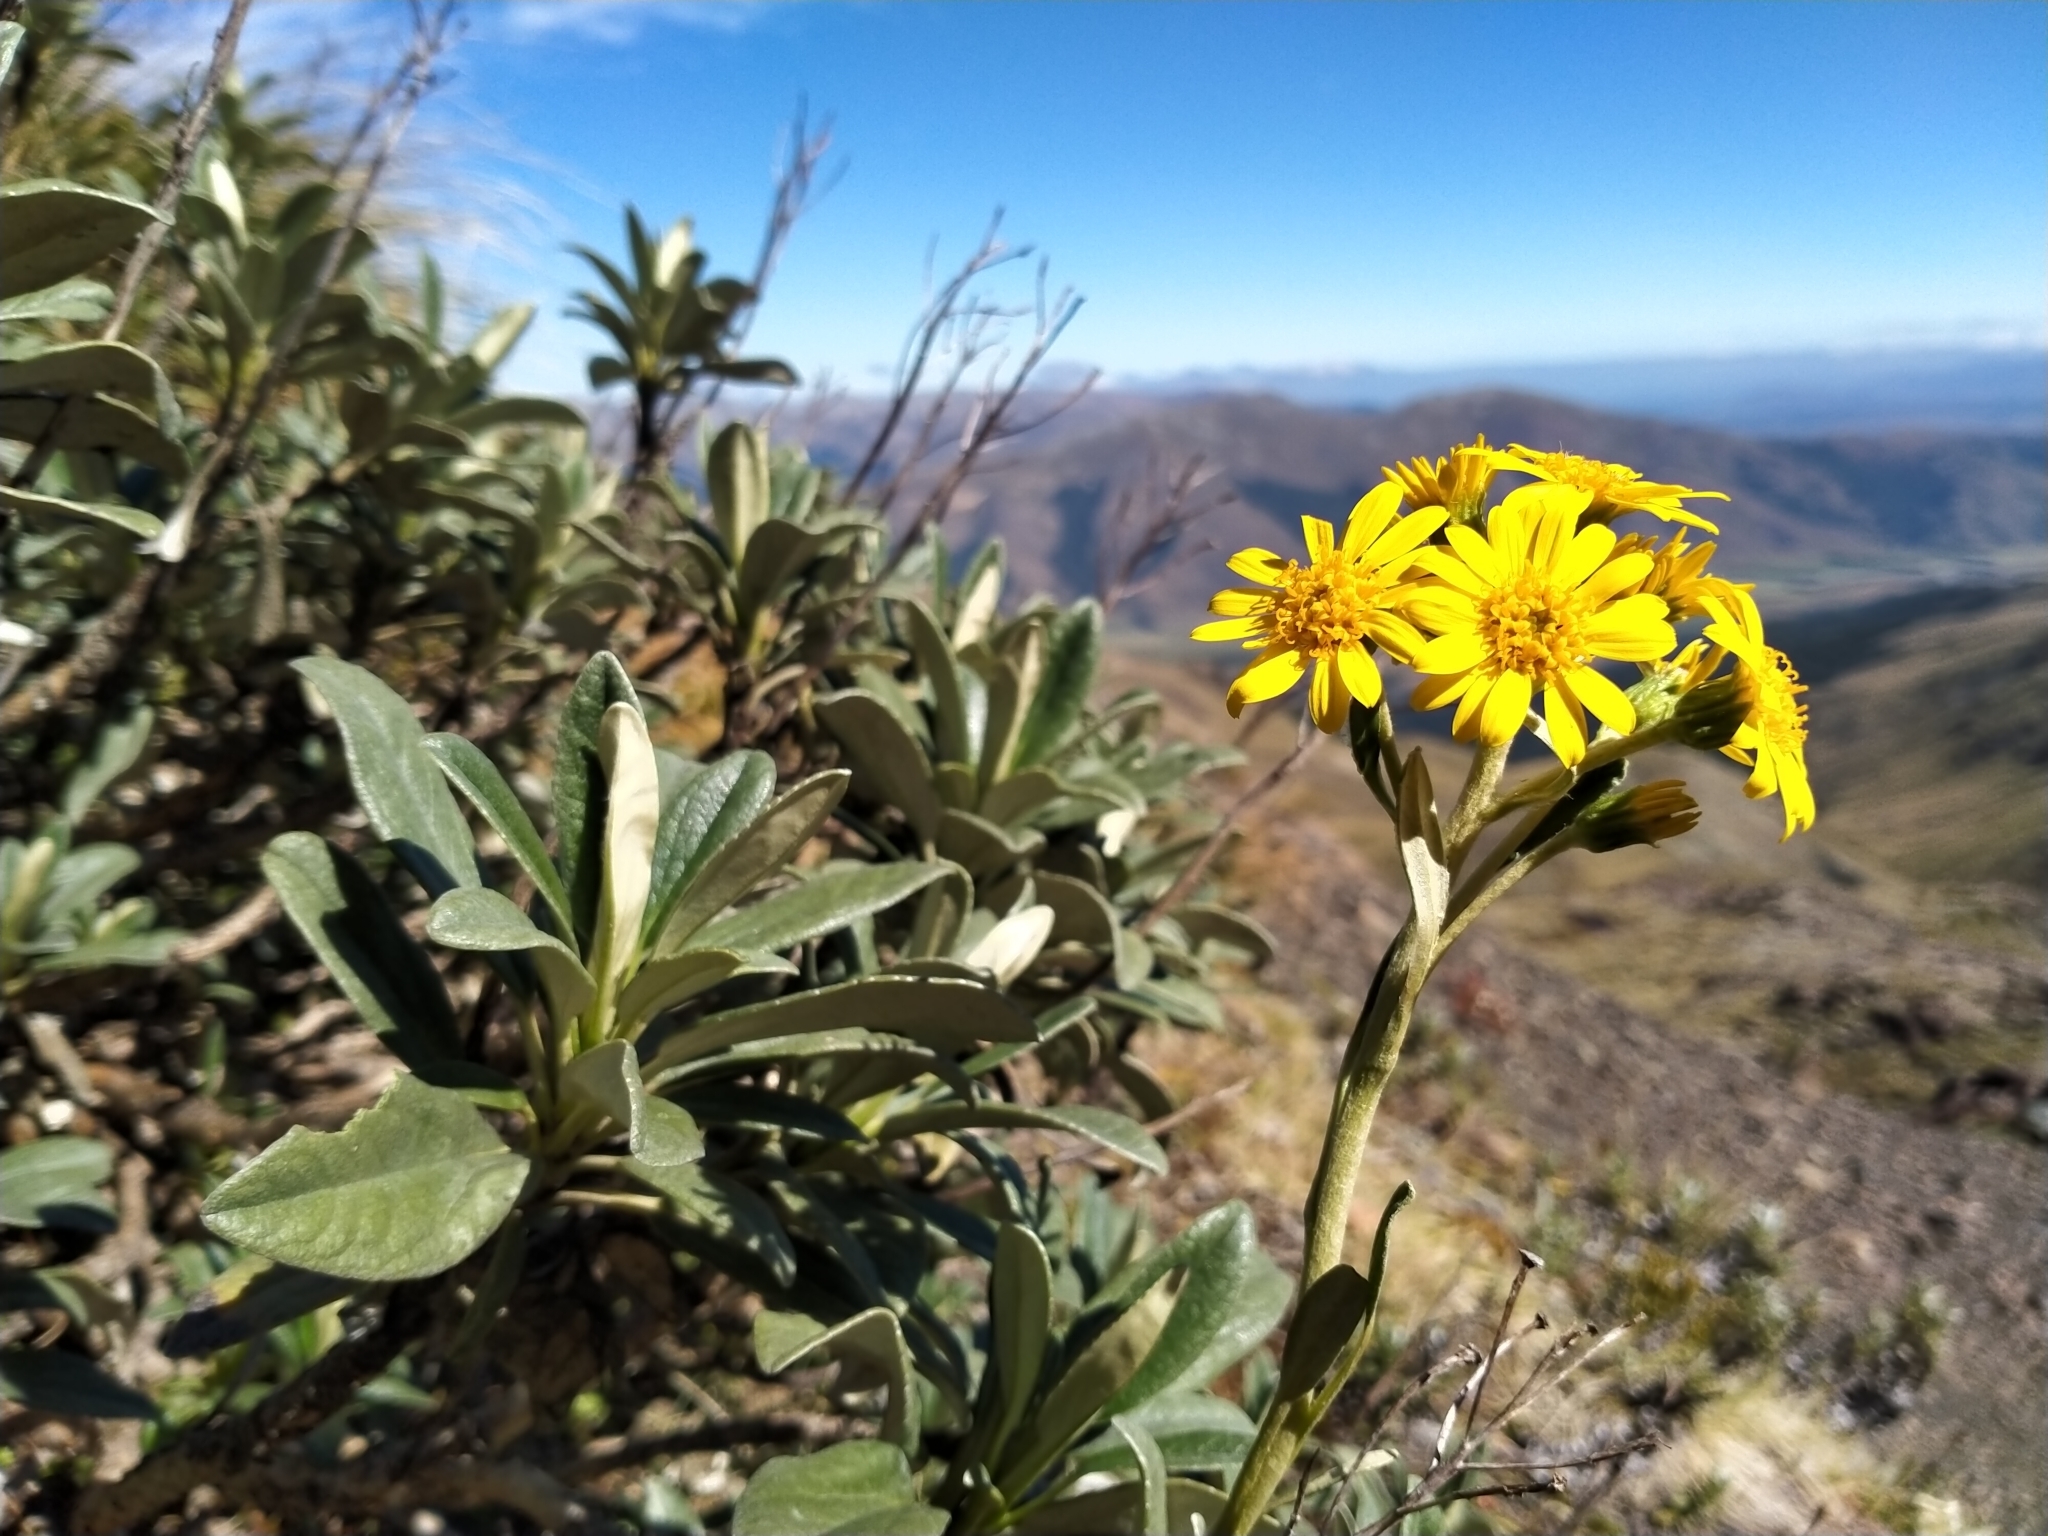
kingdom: Plantae
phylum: Tracheophyta
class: Magnoliopsida
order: Asterales
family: Asteraceae
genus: Brachyglottis
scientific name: Brachyglottis revoluta
